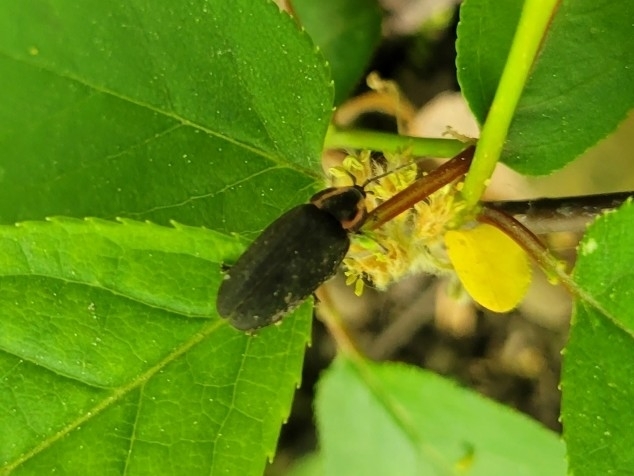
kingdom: Animalia
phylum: Arthropoda
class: Insecta
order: Coleoptera
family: Lampyridae
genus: Photinus
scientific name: Photinus corrusca
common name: Winter firefly
